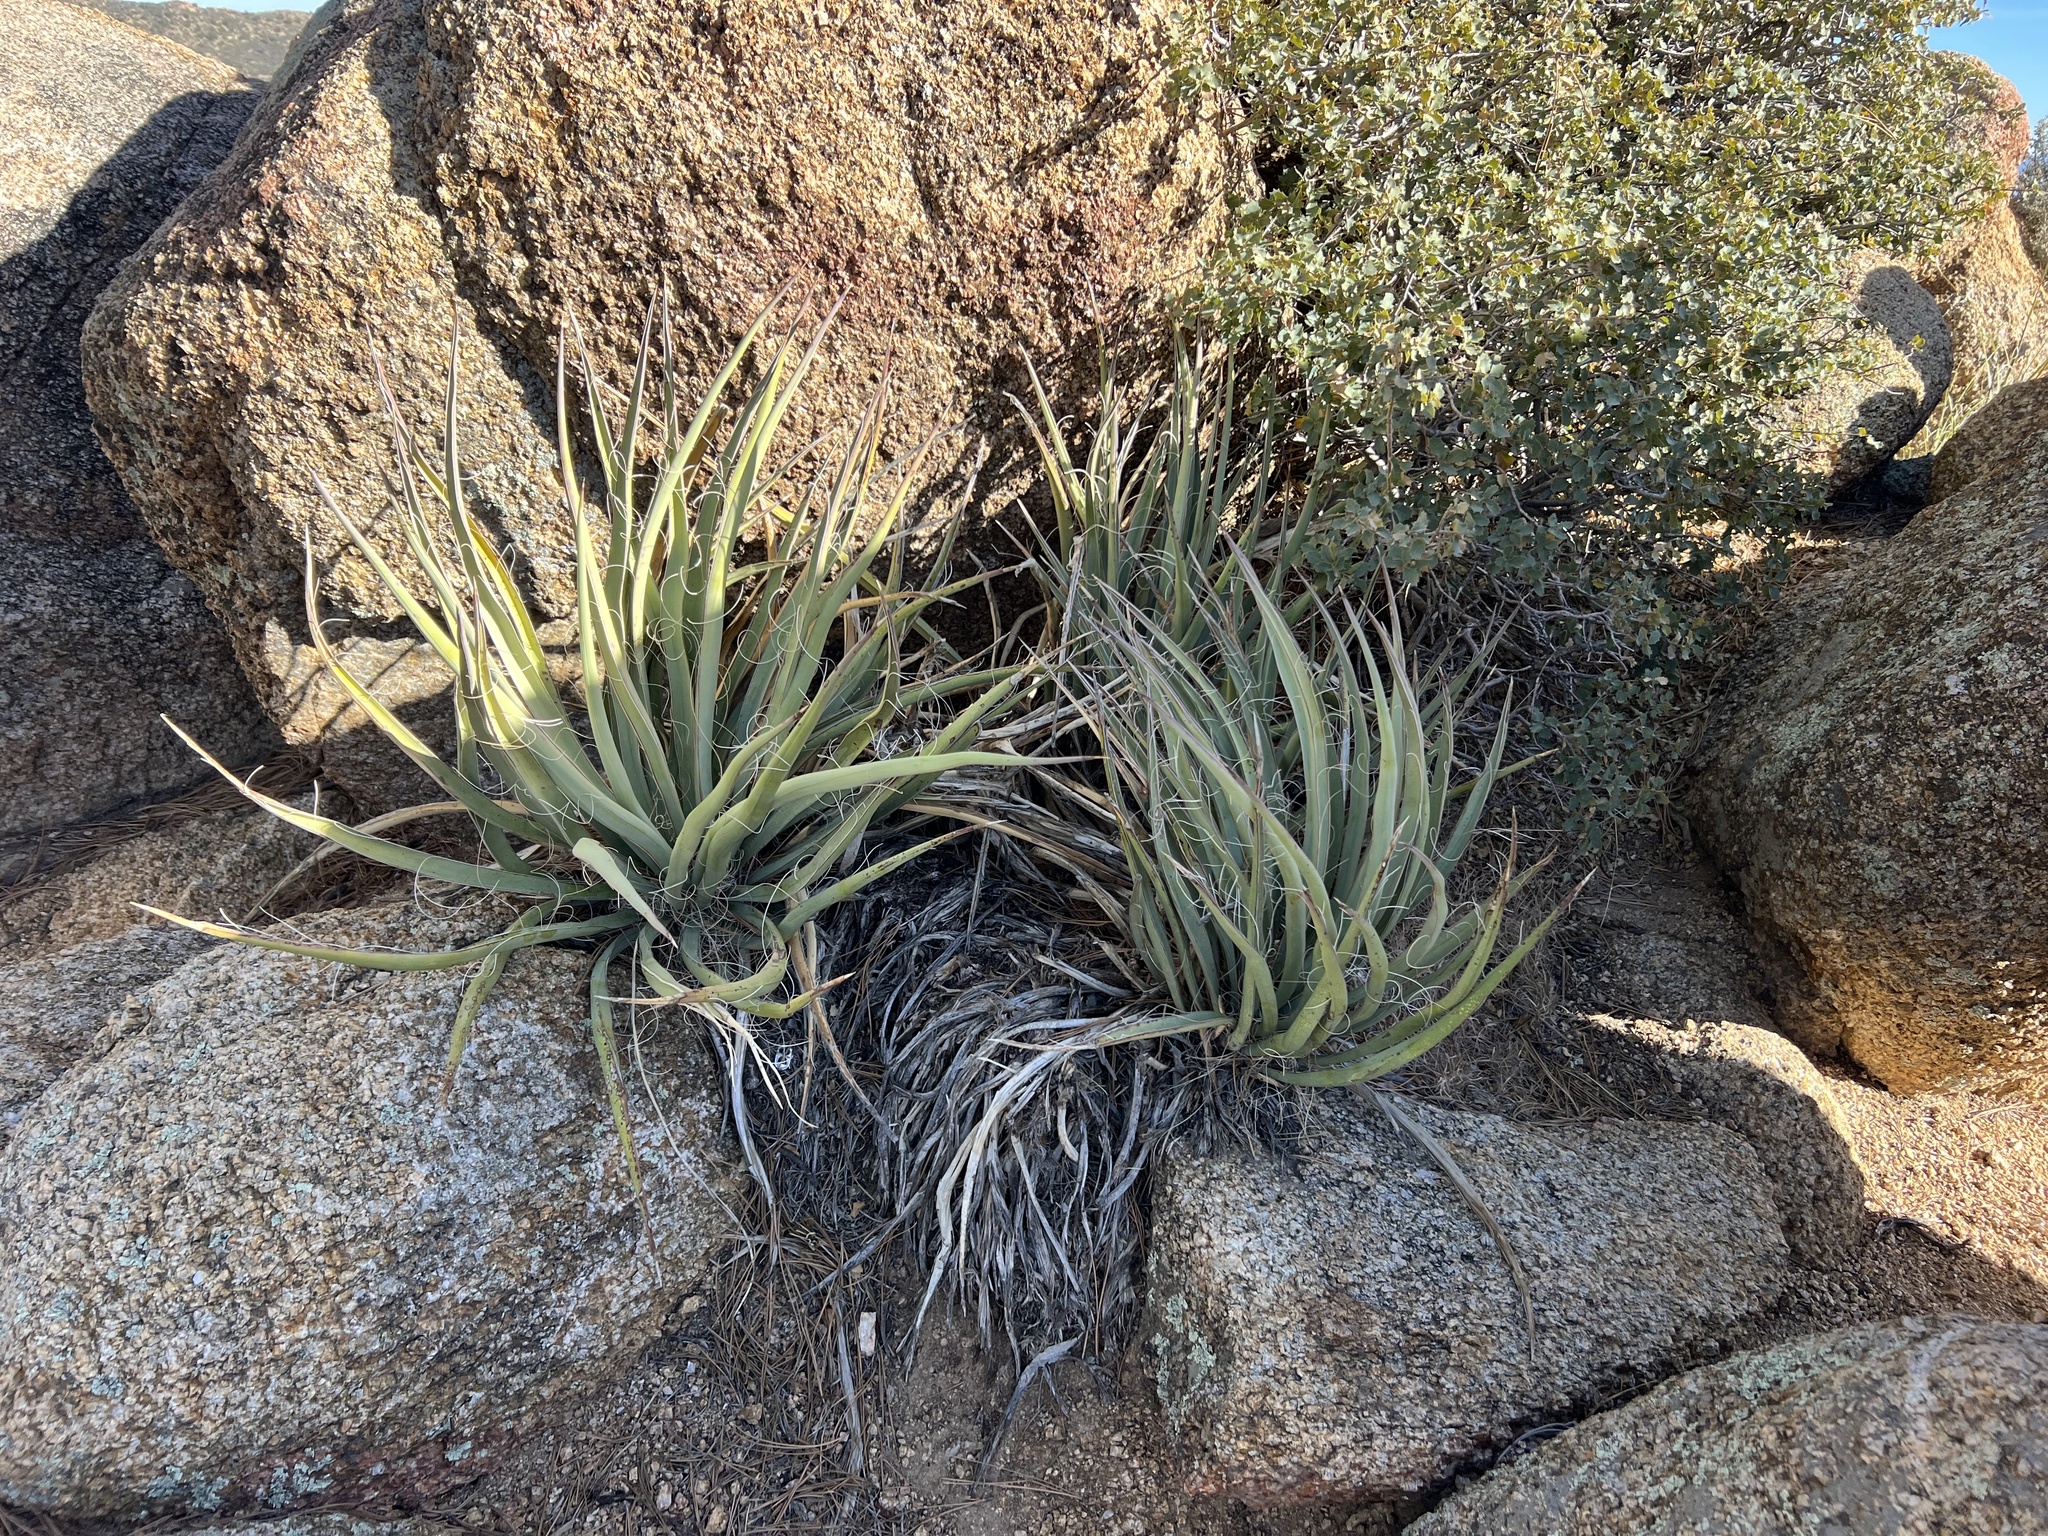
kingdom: Plantae
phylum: Tracheophyta
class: Liliopsida
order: Asparagales
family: Asparagaceae
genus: Yucca
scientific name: Yucca baccata
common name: Banana yucca
